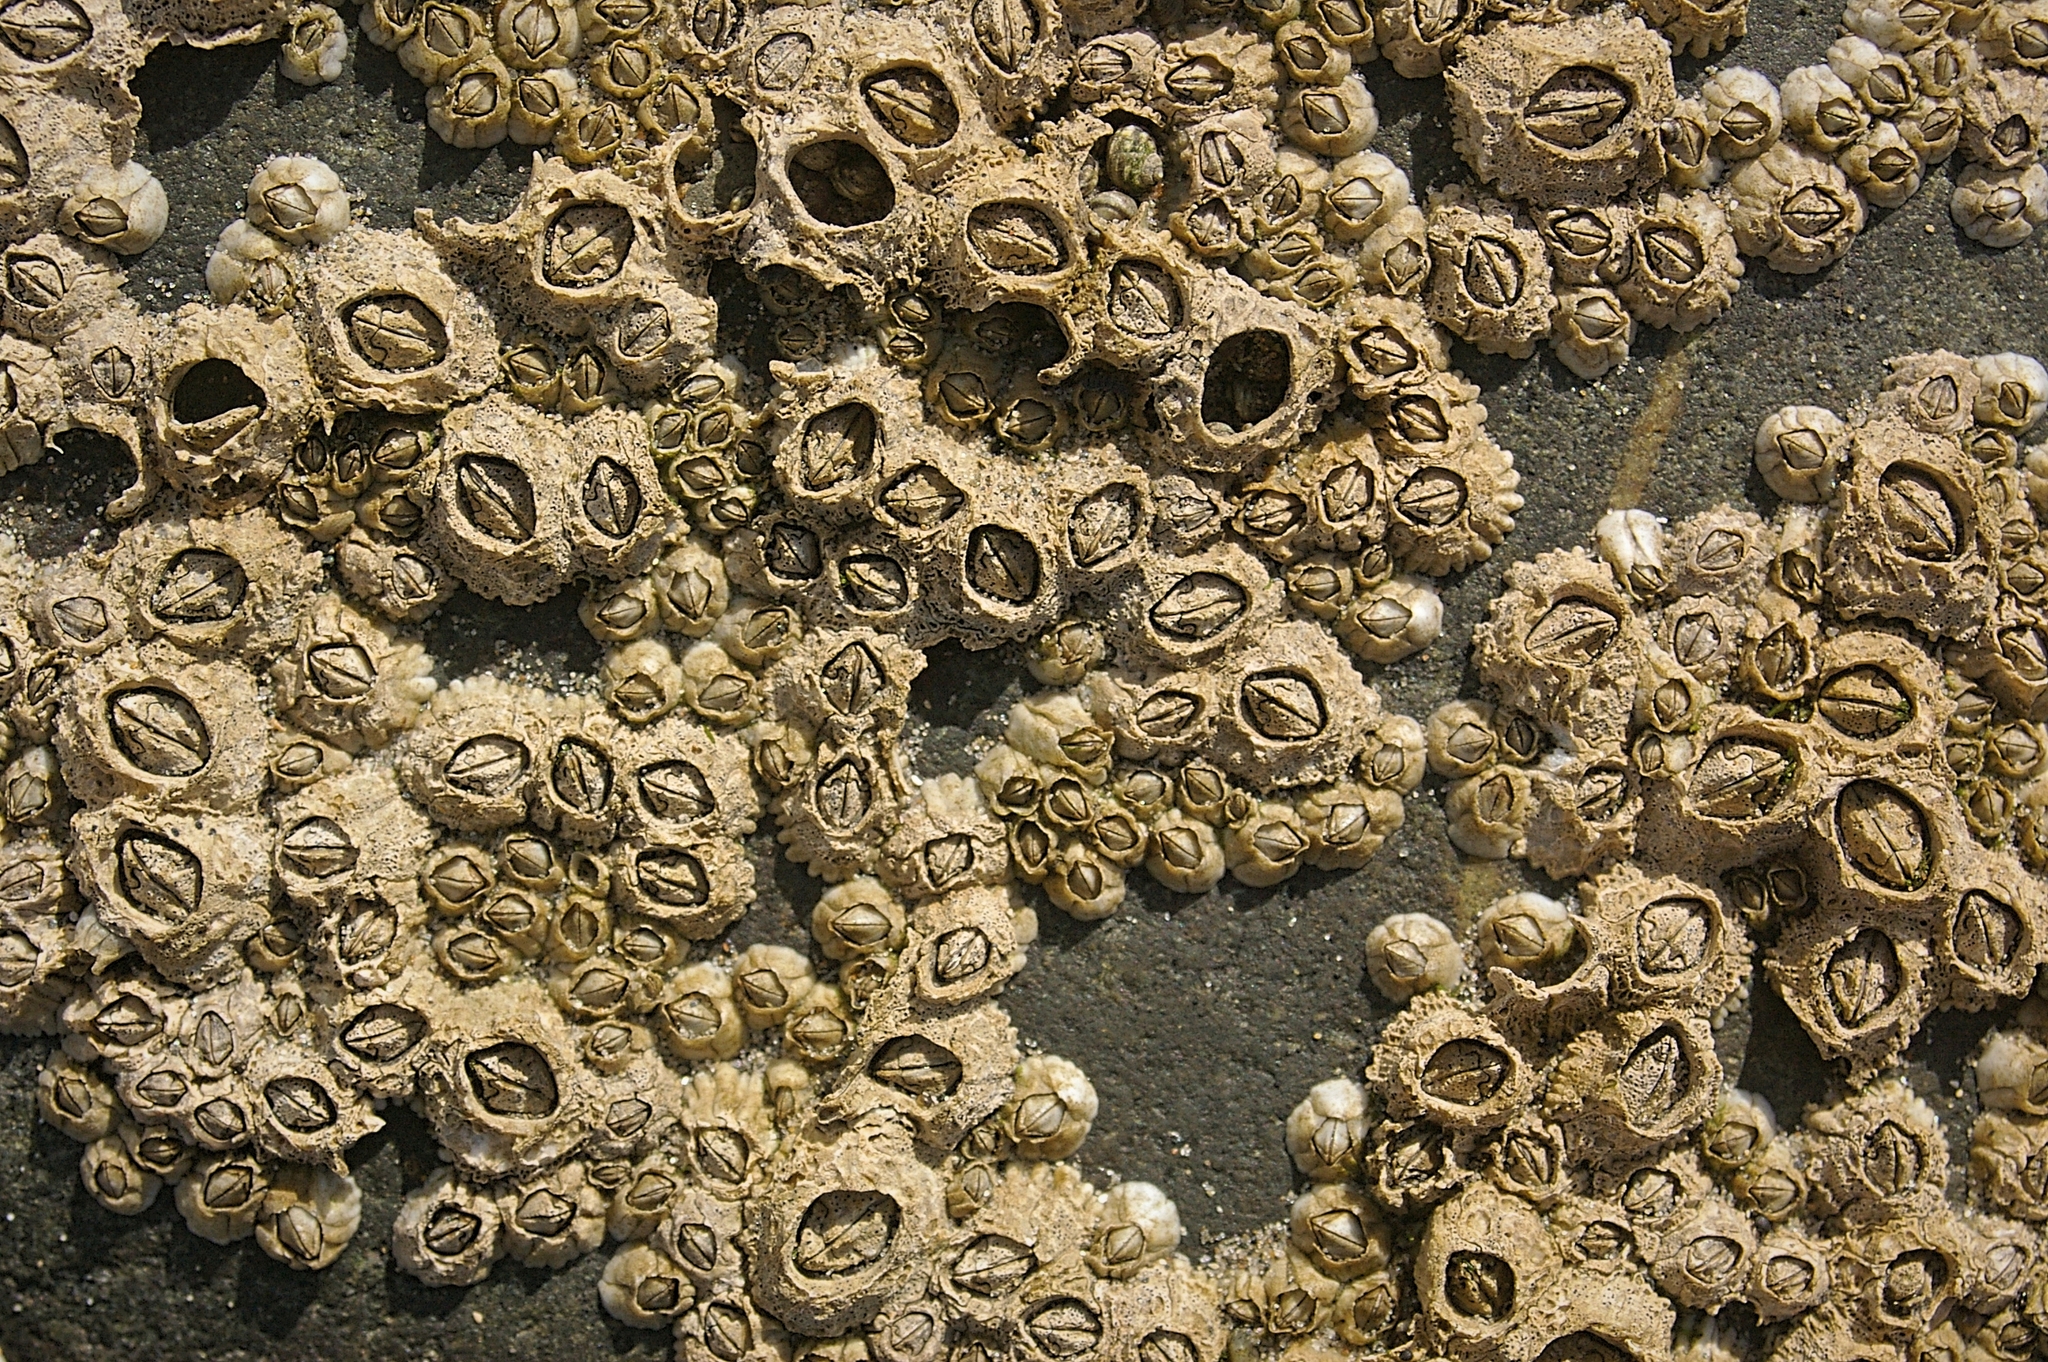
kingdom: Animalia
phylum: Arthropoda
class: Maxillopoda
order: Sessilia
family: Archaeobalanidae
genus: Semibalanus
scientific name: Semibalanus balanoides
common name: Acorn barnacle
